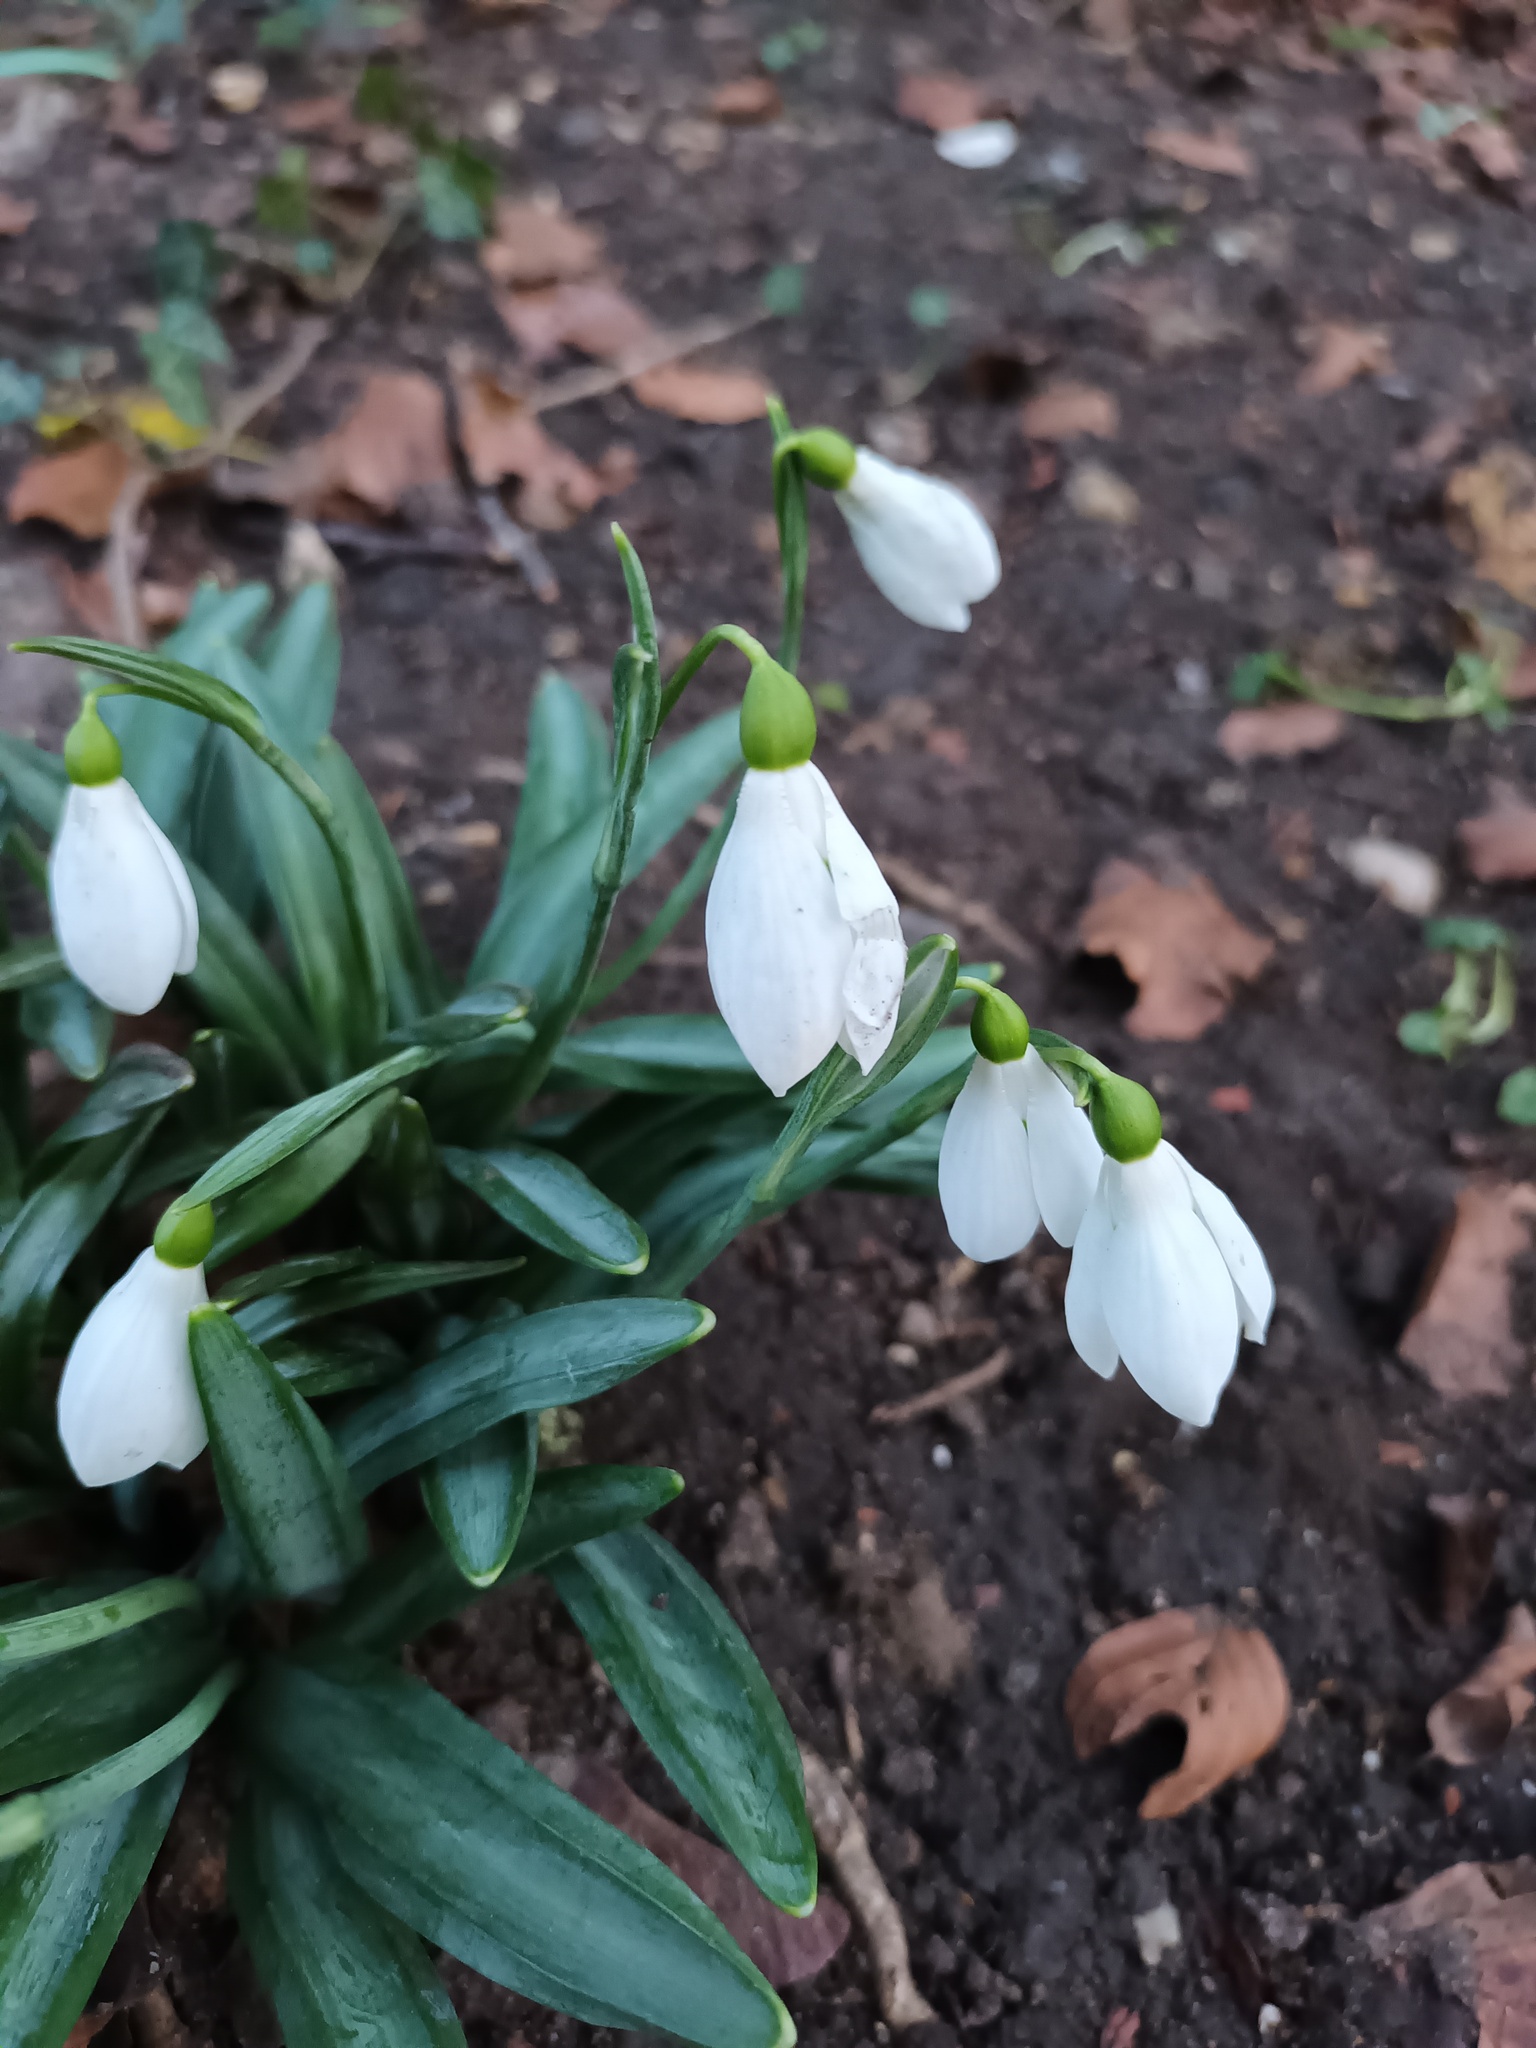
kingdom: Plantae
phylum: Tracheophyta
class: Liliopsida
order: Asparagales
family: Amaryllidaceae
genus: Galanthus
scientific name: Galanthus plicatus
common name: Pleated snowdrop
